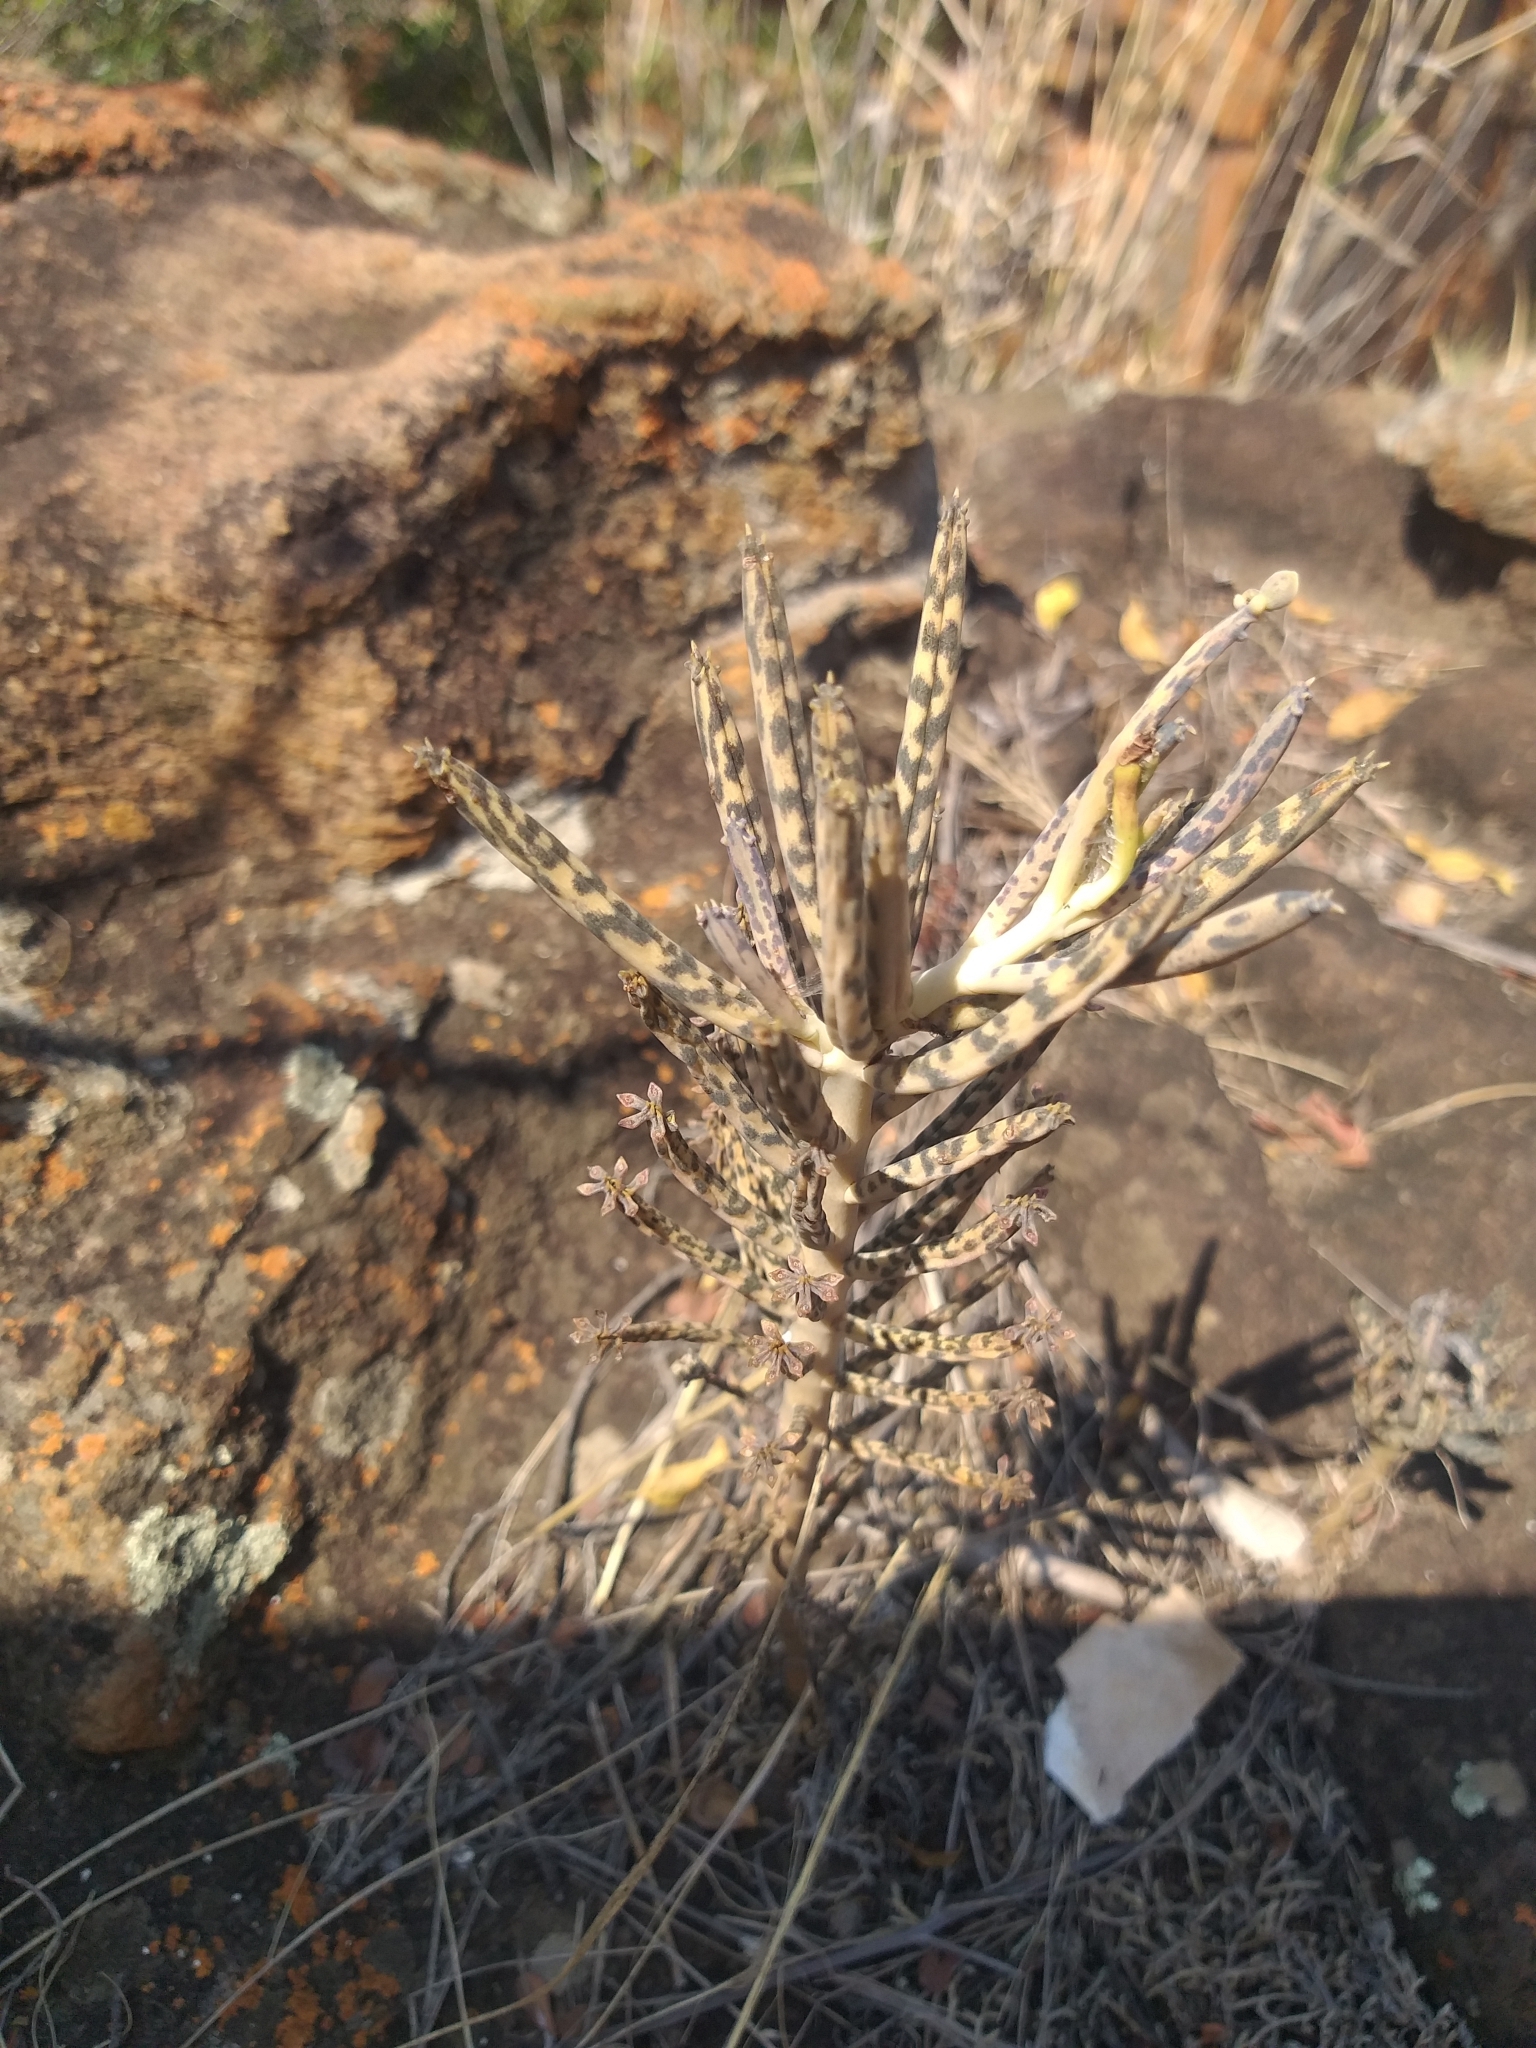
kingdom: Plantae
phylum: Tracheophyta
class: Magnoliopsida
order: Saxifragales
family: Crassulaceae
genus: Kalanchoe
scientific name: Kalanchoe delagoensis
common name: Chandelier plant
